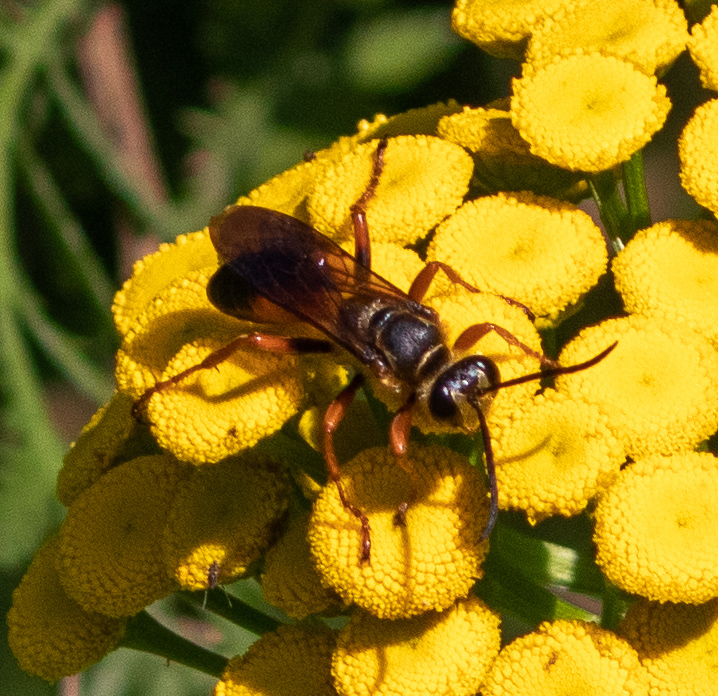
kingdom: Animalia
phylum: Arthropoda
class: Insecta
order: Hymenoptera
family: Sphecidae
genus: Sphex
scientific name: Sphex ichneumoneus
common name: Great golden digger wasp
